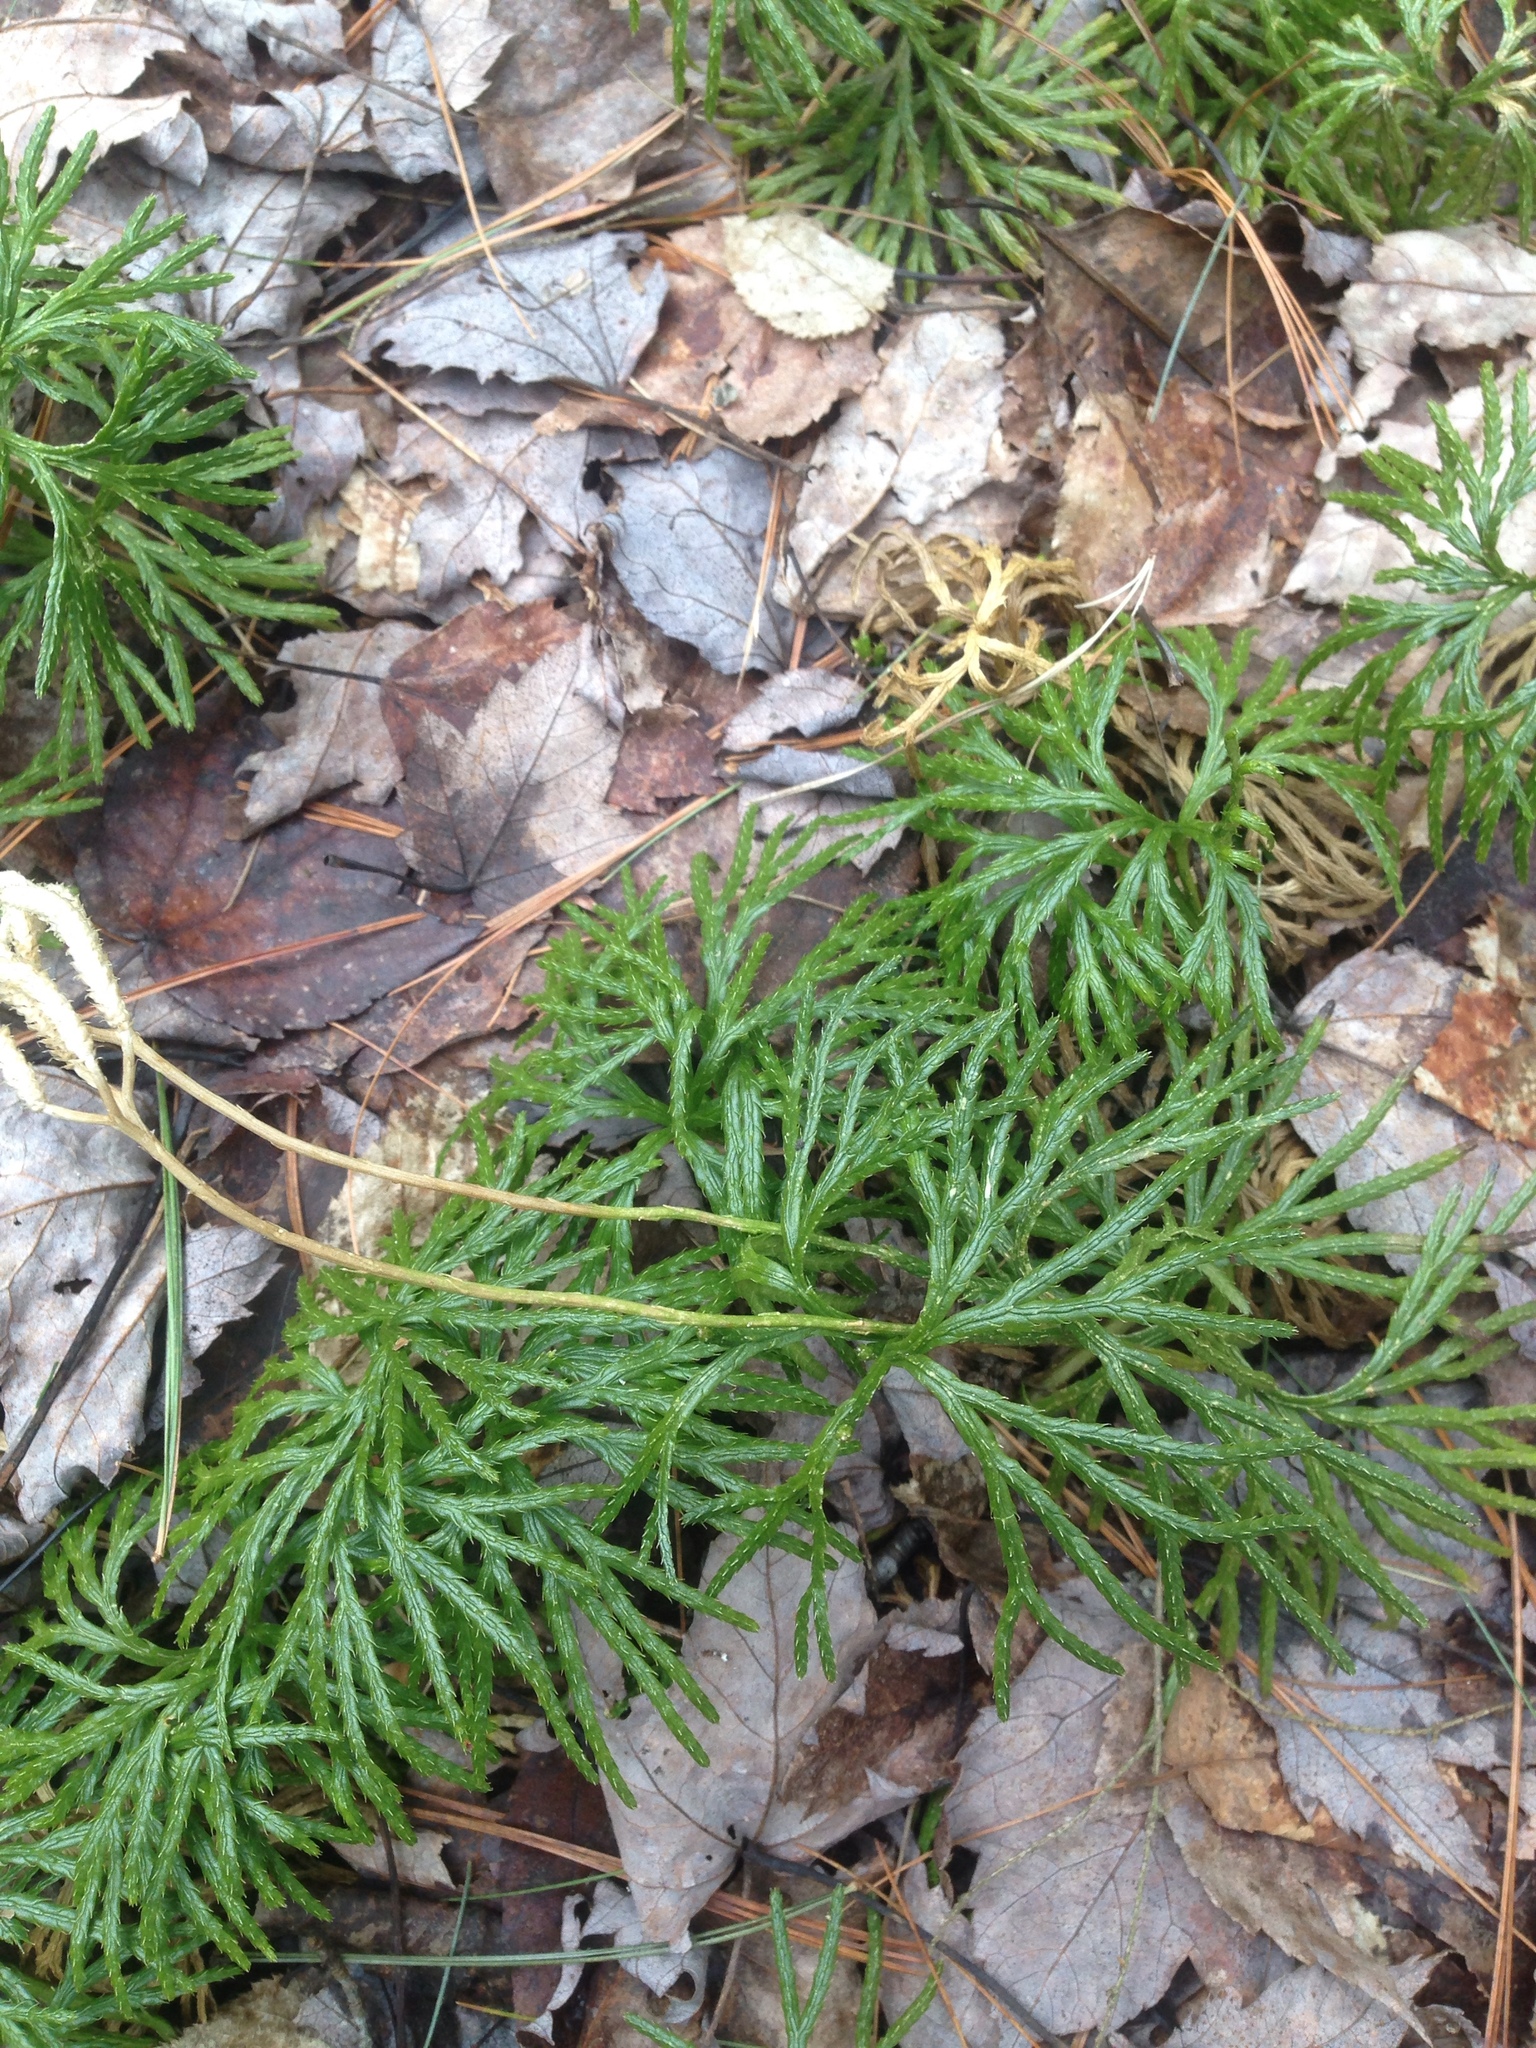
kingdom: Plantae
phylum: Tracheophyta
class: Lycopodiopsida
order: Lycopodiales
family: Lycopodiaceae
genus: Diphasiastrum
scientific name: Diphasiastrum digitatum
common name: Southern running-pine
